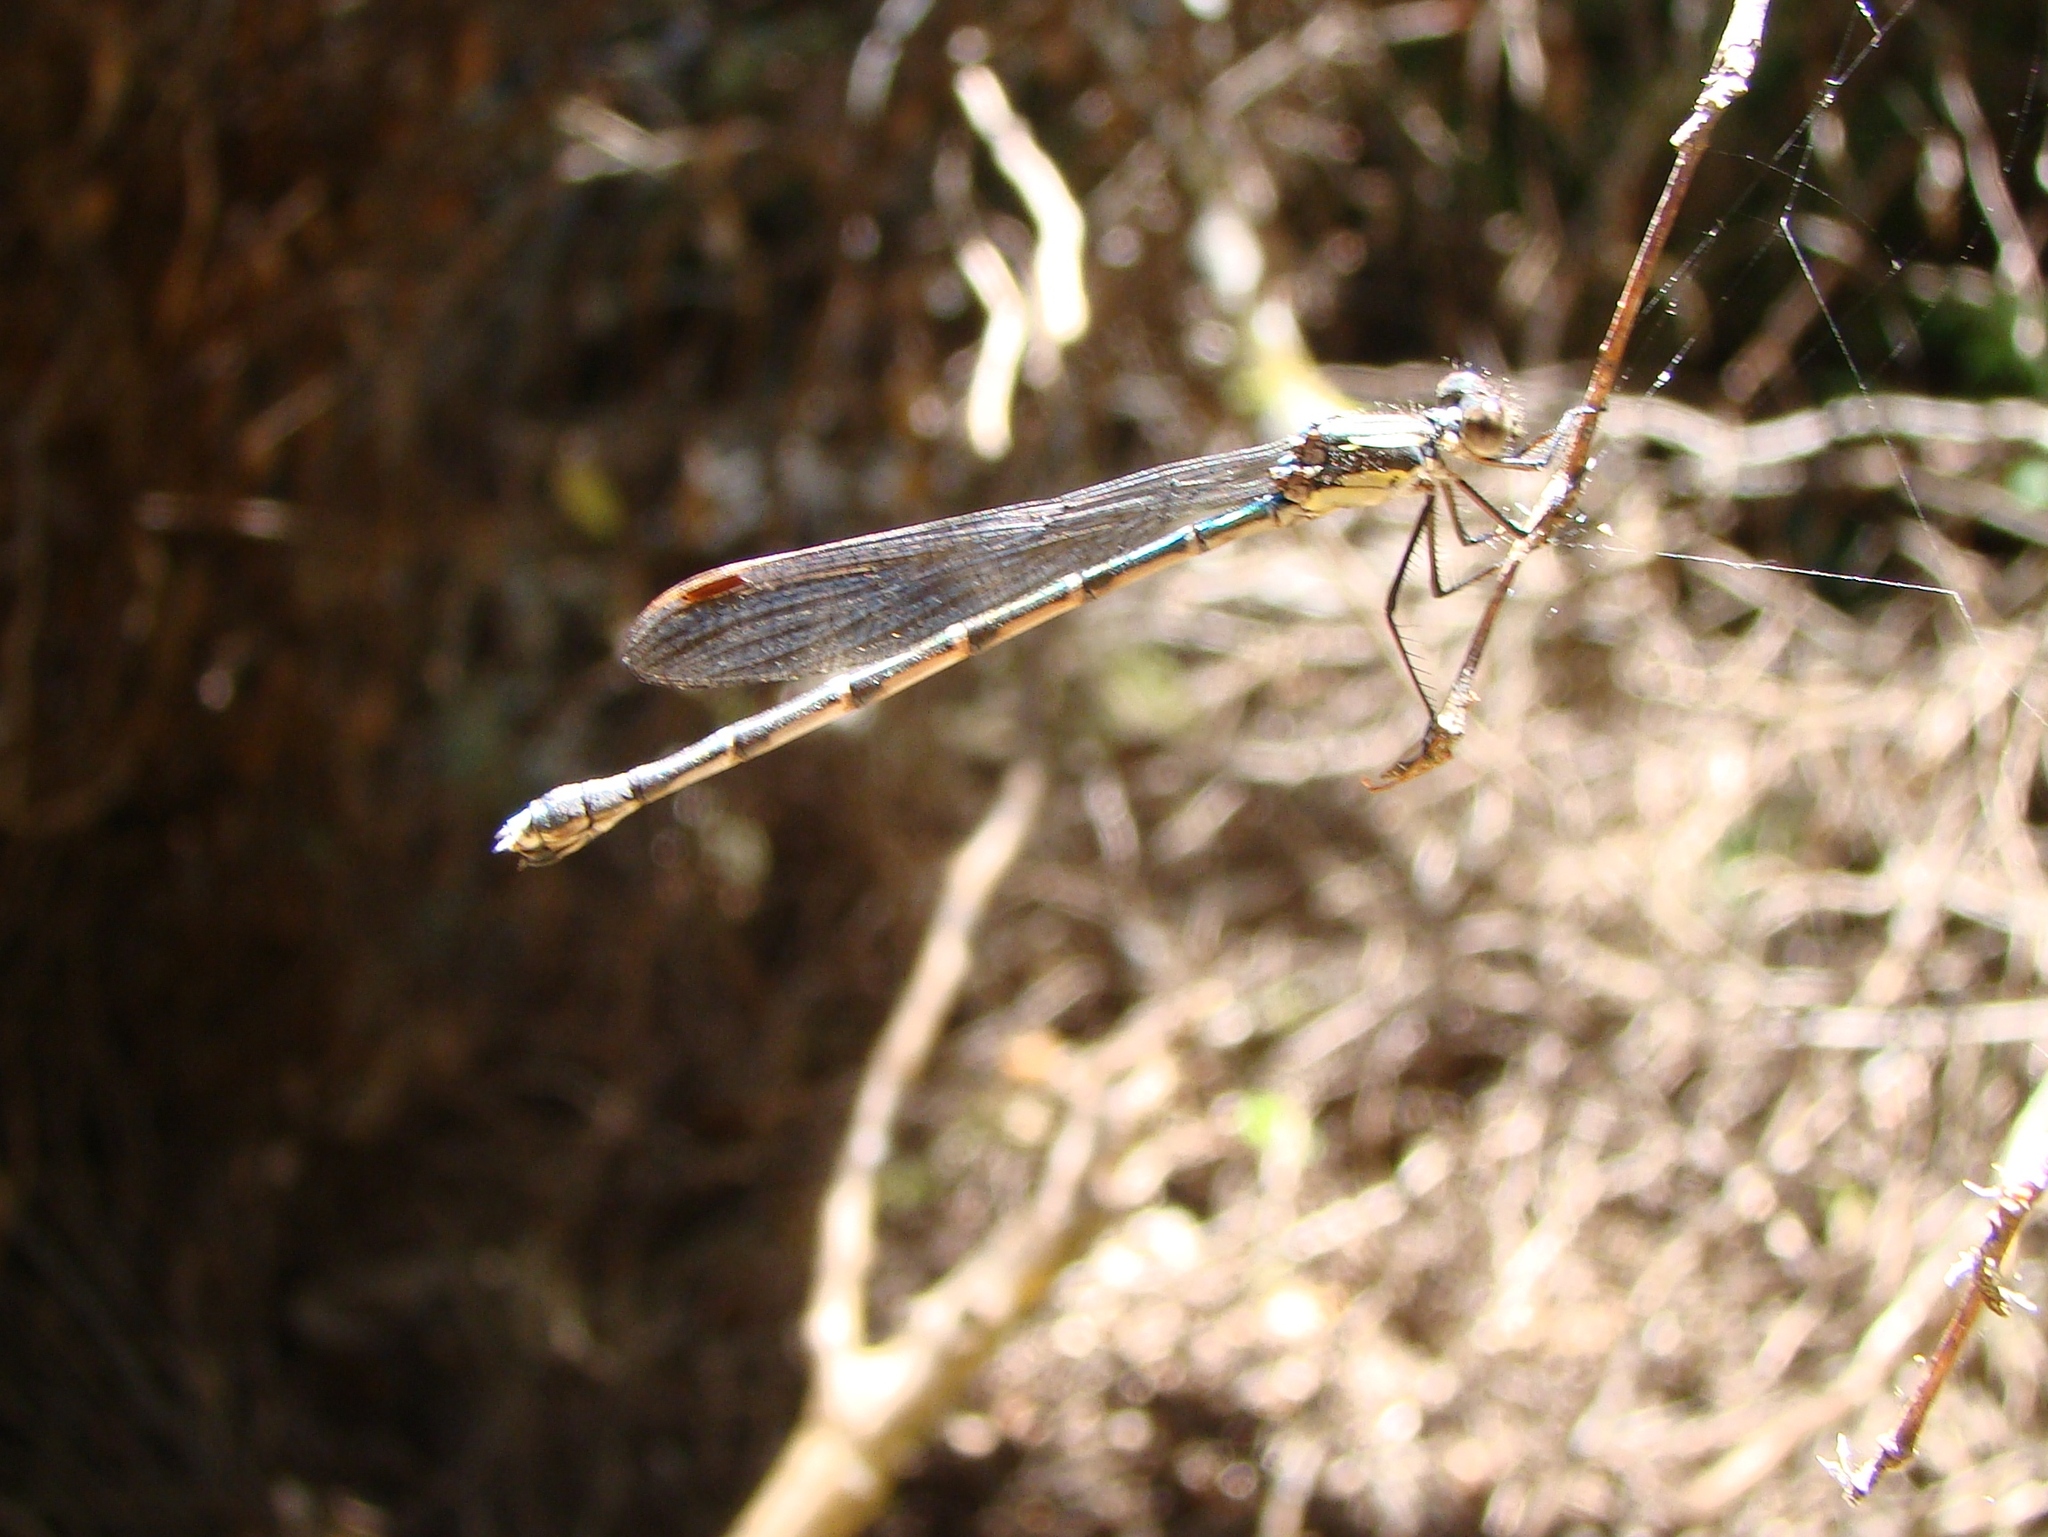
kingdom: Animalia
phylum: Arthropoda
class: Insecta
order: Odonata
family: Lestidae
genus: Austrolestes
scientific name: Austrolestes colensonis
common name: Blue damselfly
